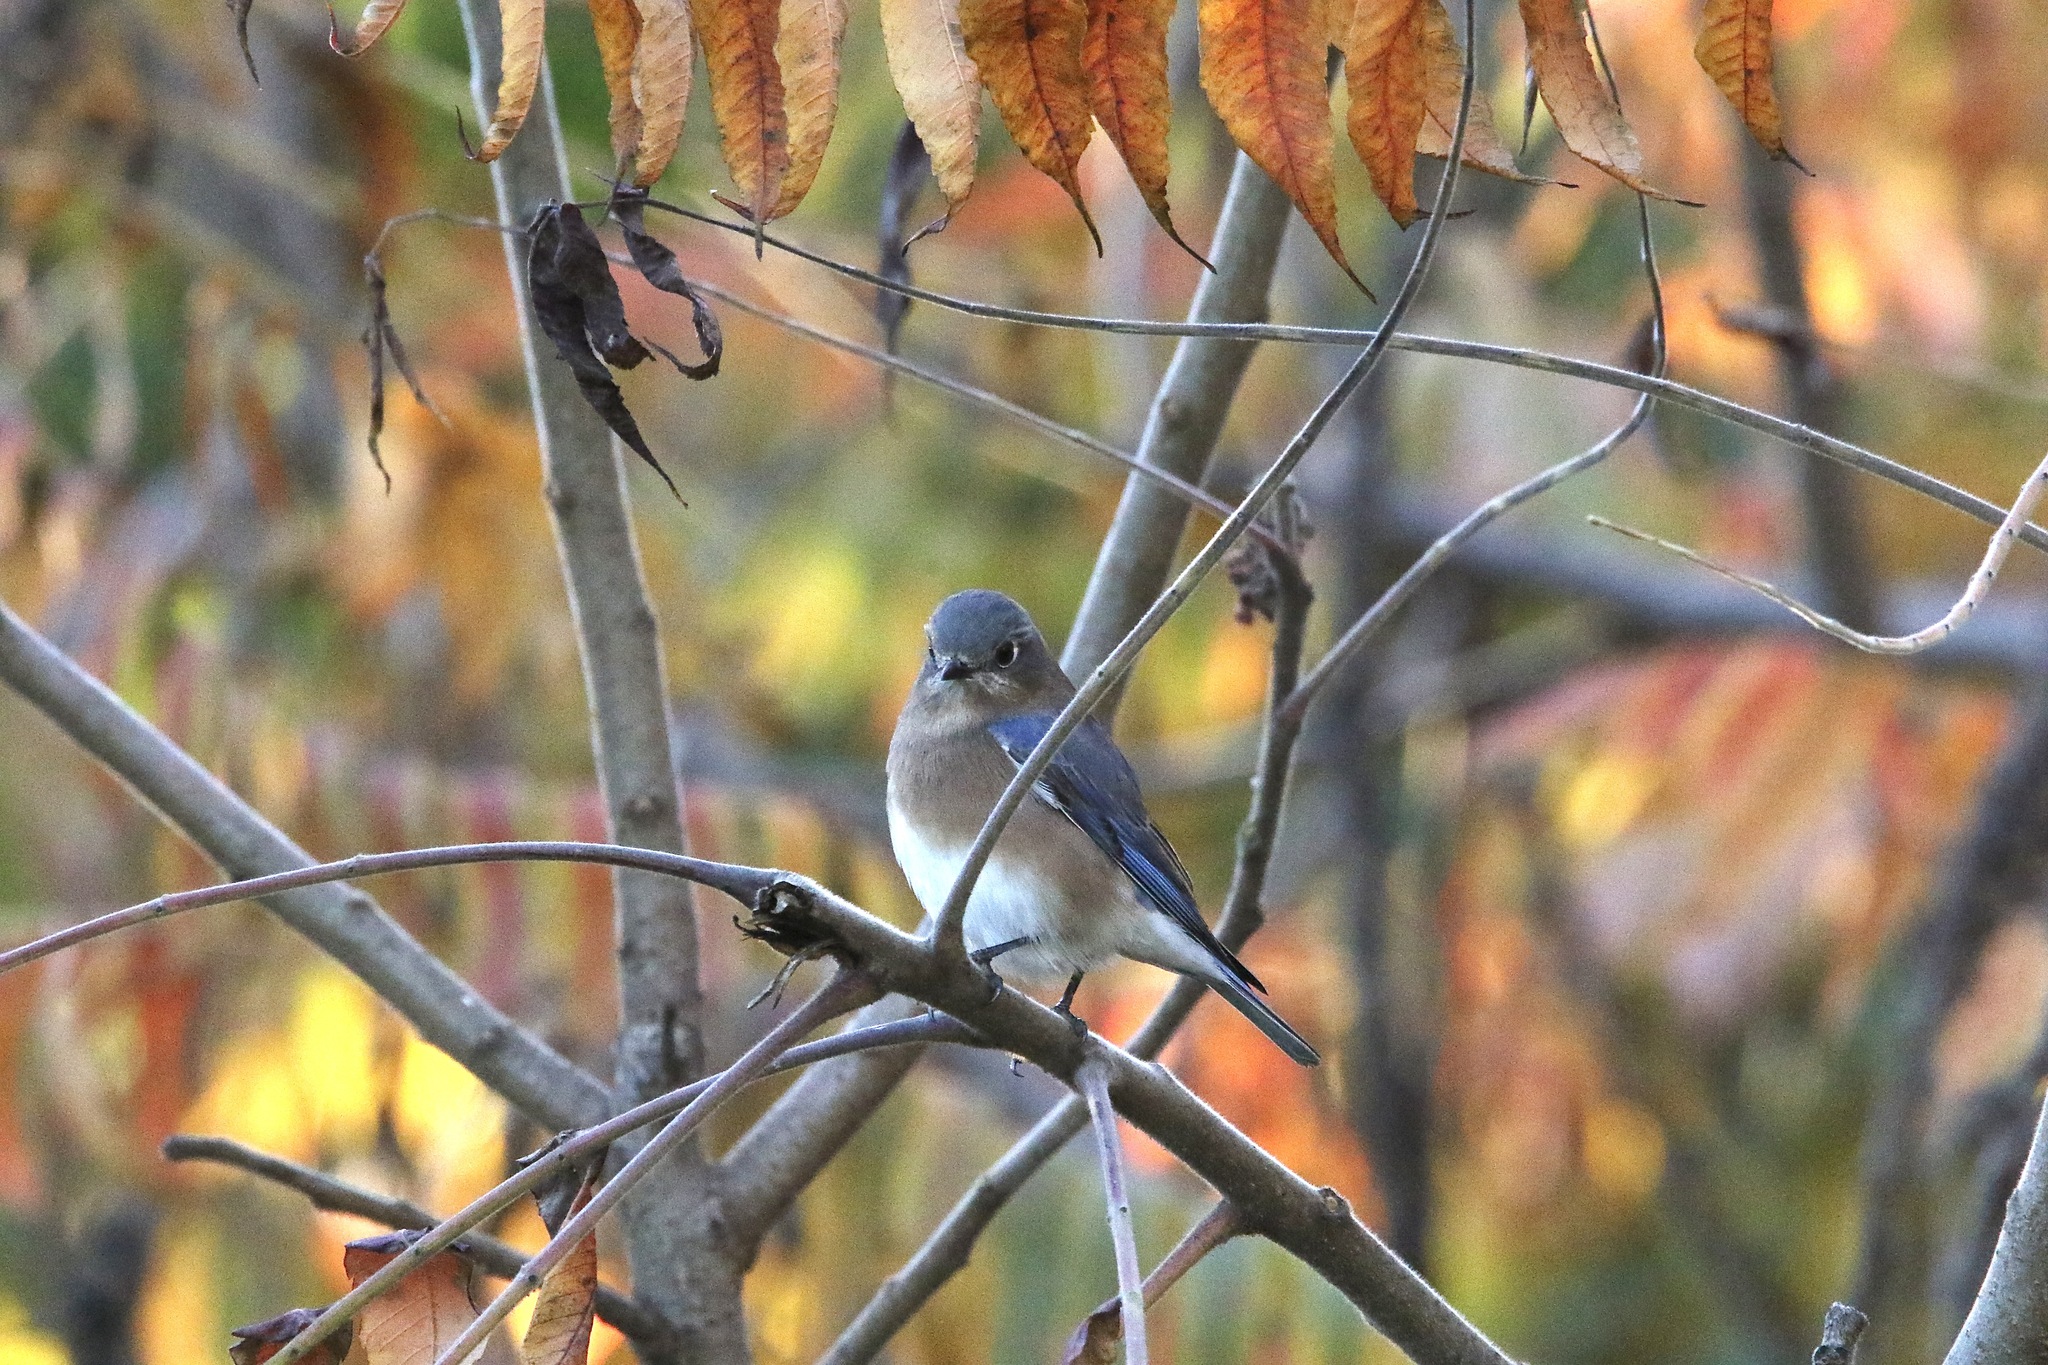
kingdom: Animalia
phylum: Chordata
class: Aves
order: Passeriformes
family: Turdidae
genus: Sialia
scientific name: Sialia sialis
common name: Eastern bluebird
